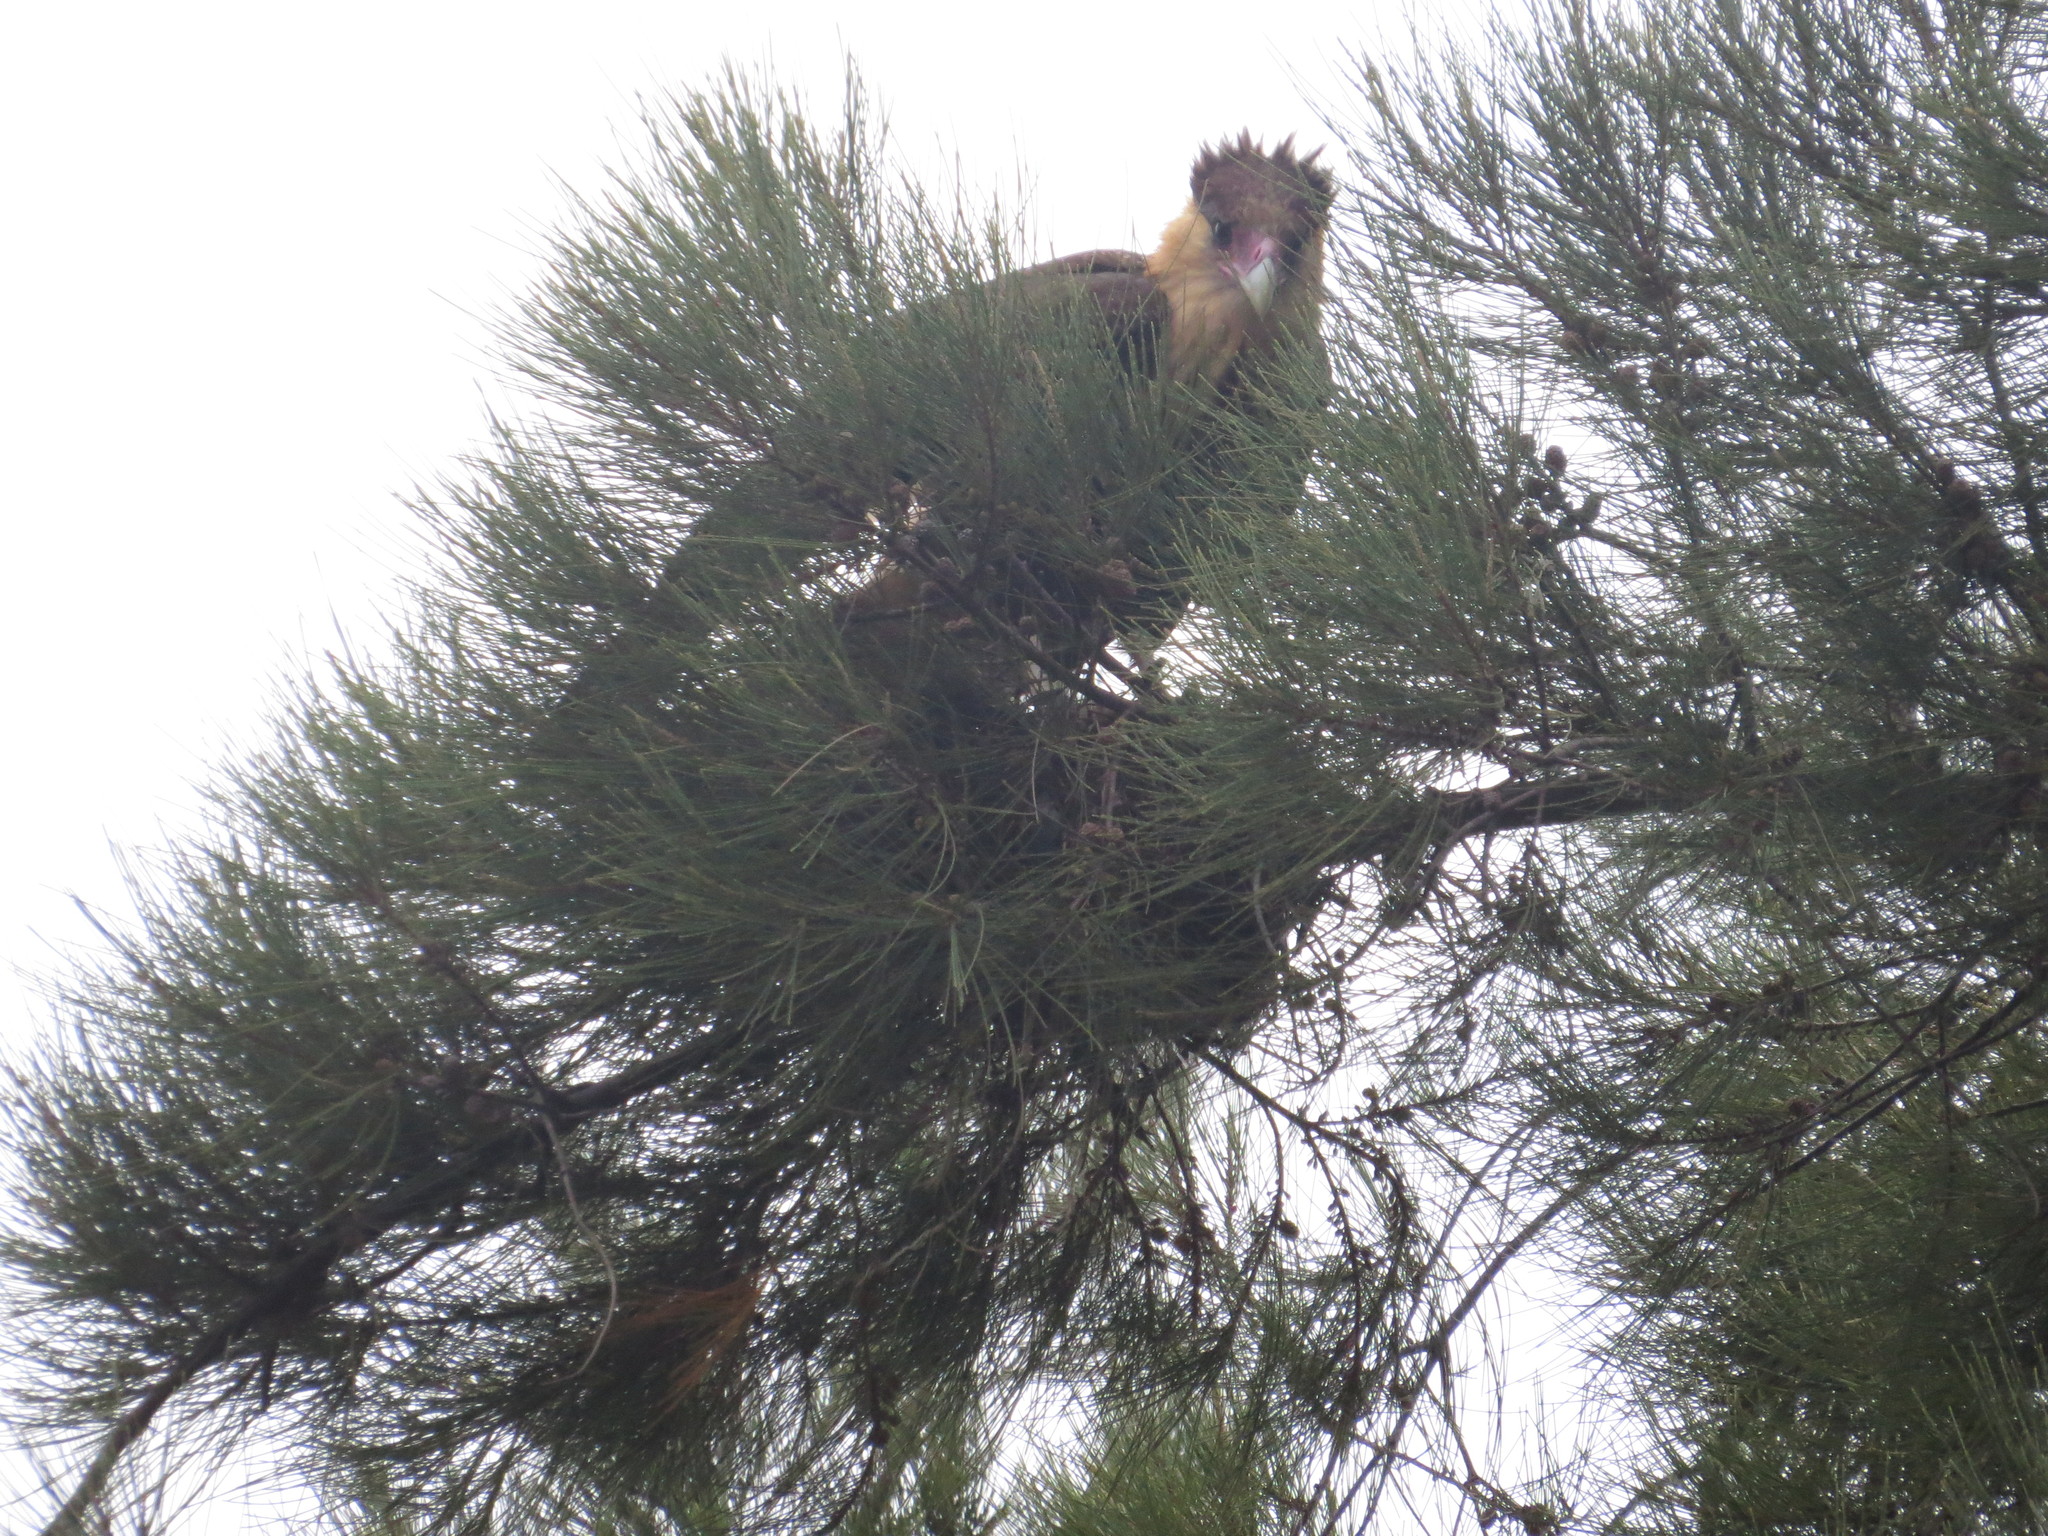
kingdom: Animalia
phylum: Chordata
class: Aves
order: Falconiformes
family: Falconidae
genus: Caracara
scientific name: Caracara plancus
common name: Southern caracara
